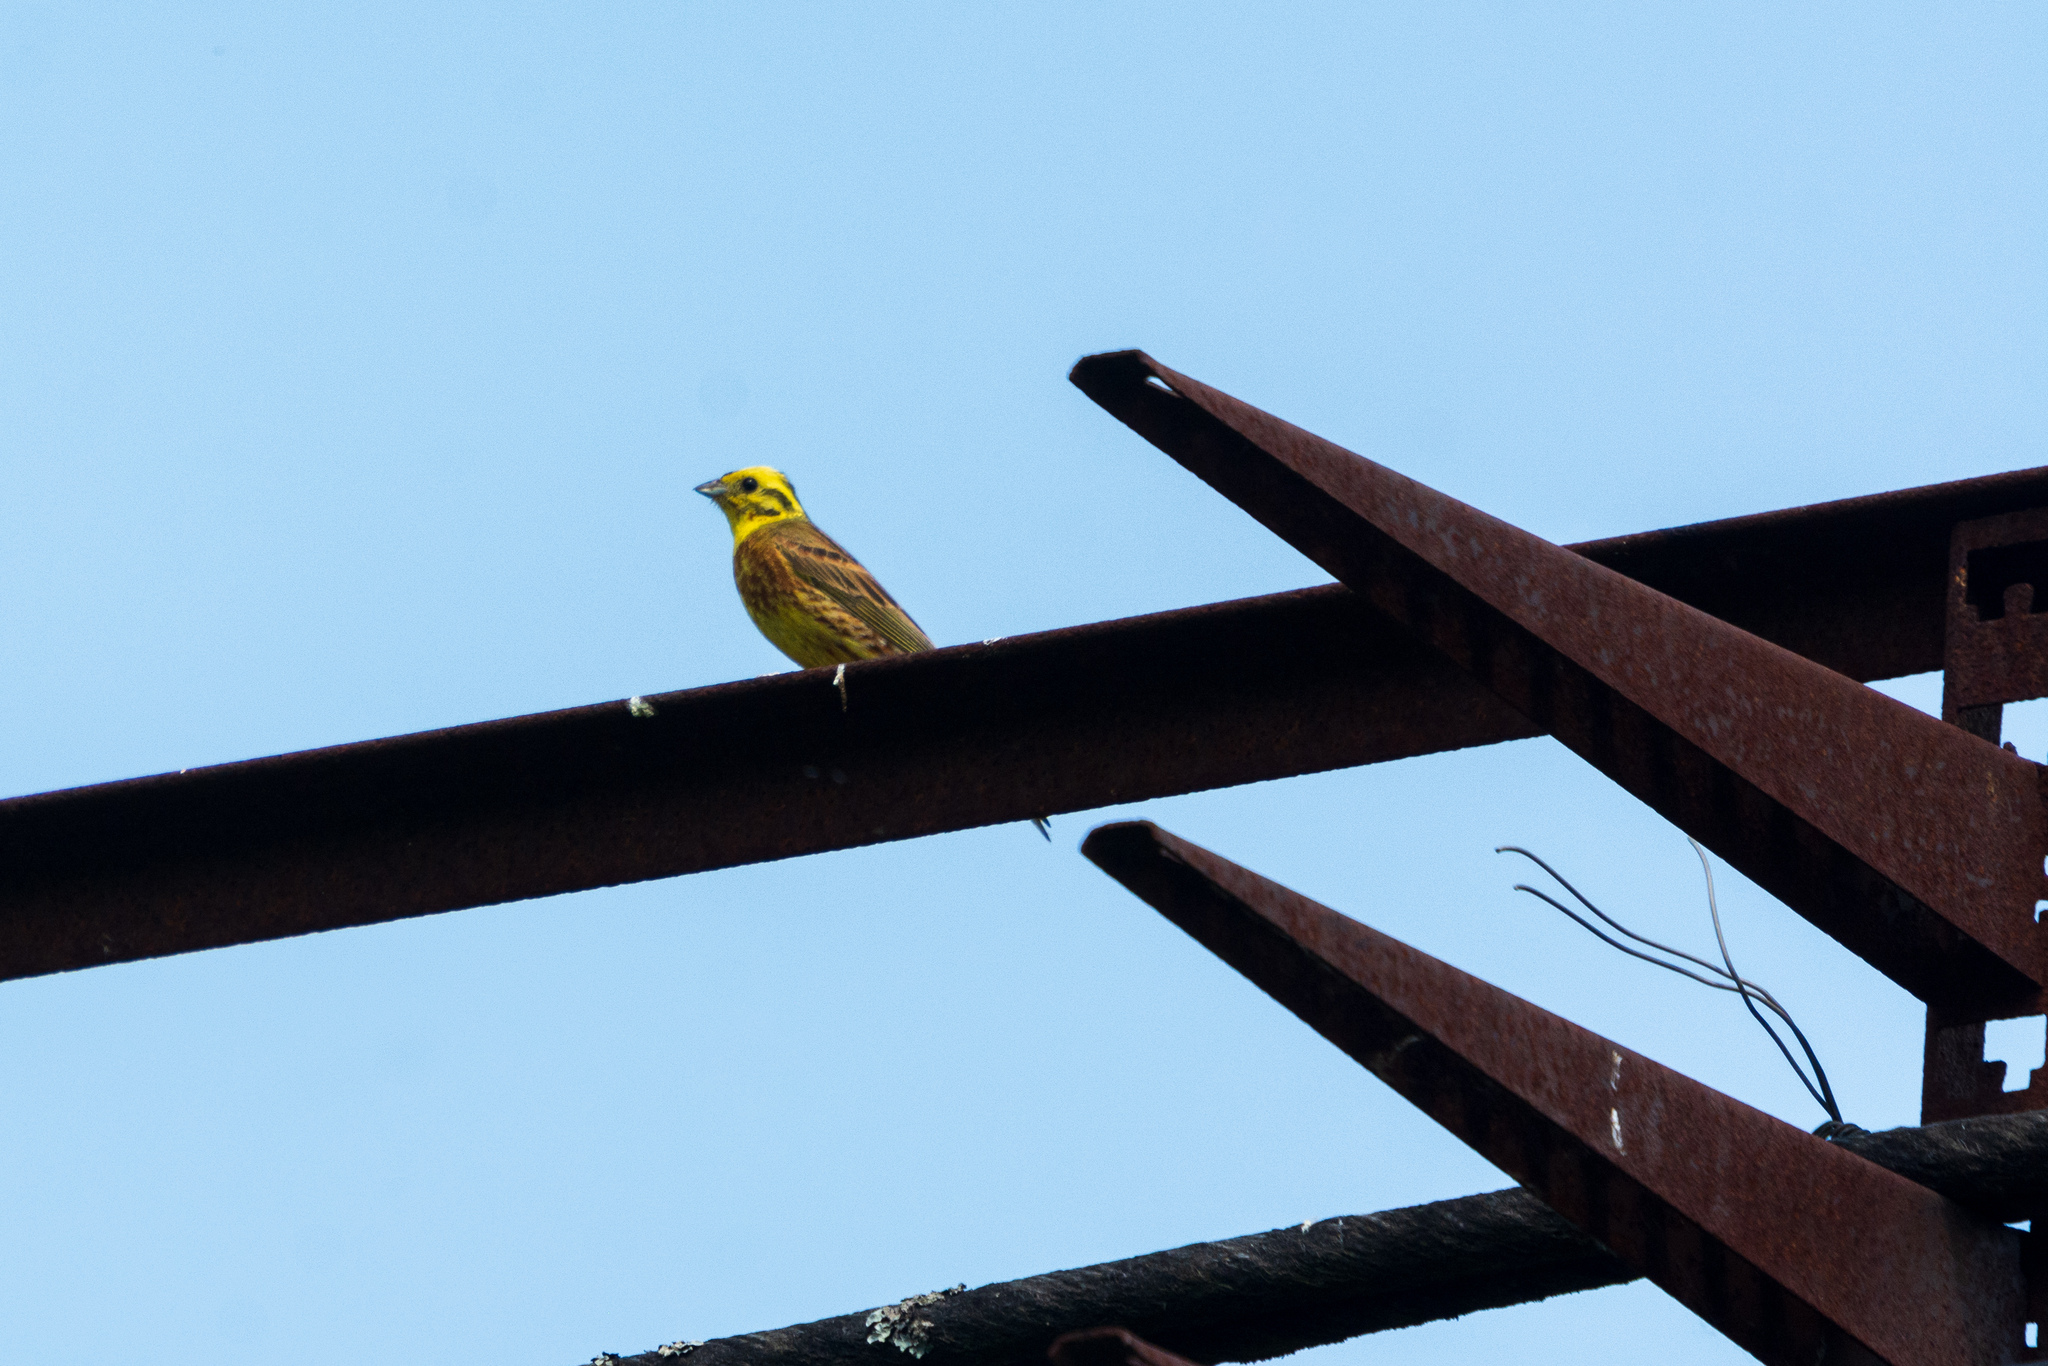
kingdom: Animalia
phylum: Chordata
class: Aves
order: Passeriformes
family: Emberizidae
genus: Emberiza
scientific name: Emberiza citrinella
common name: Yellowhammer
